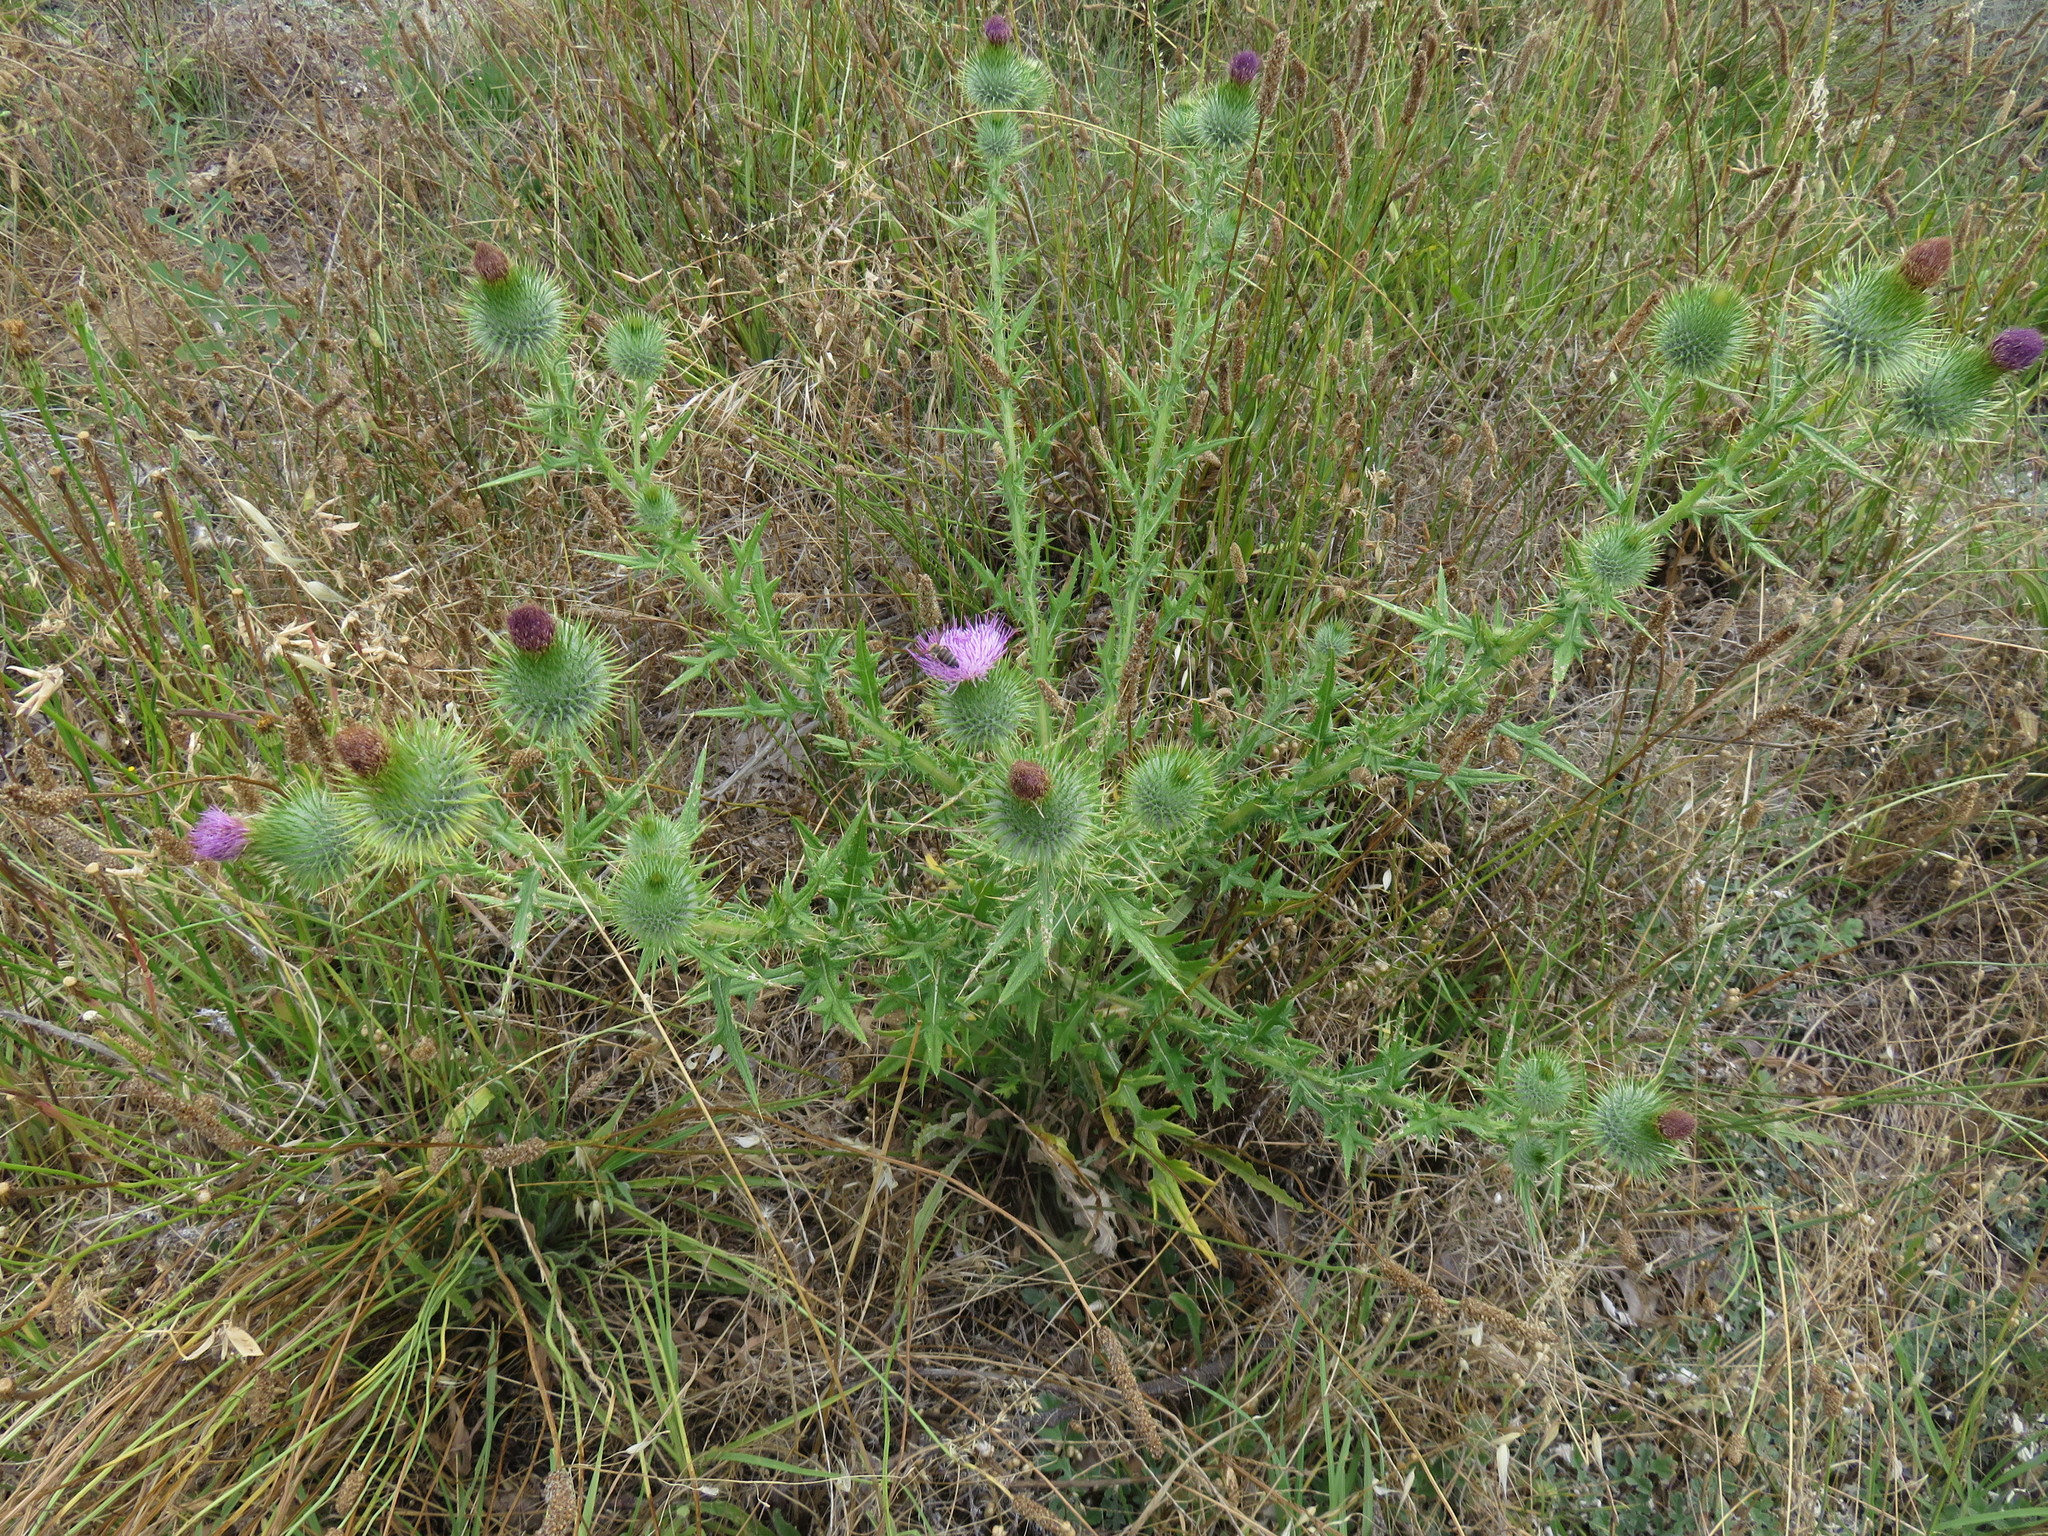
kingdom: Plantae
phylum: Tracheophyta
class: Magnoliopsida
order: Asterales
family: Asteraceae
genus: Cirsium
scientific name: Cirsium vulgare
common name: Bull thistle
